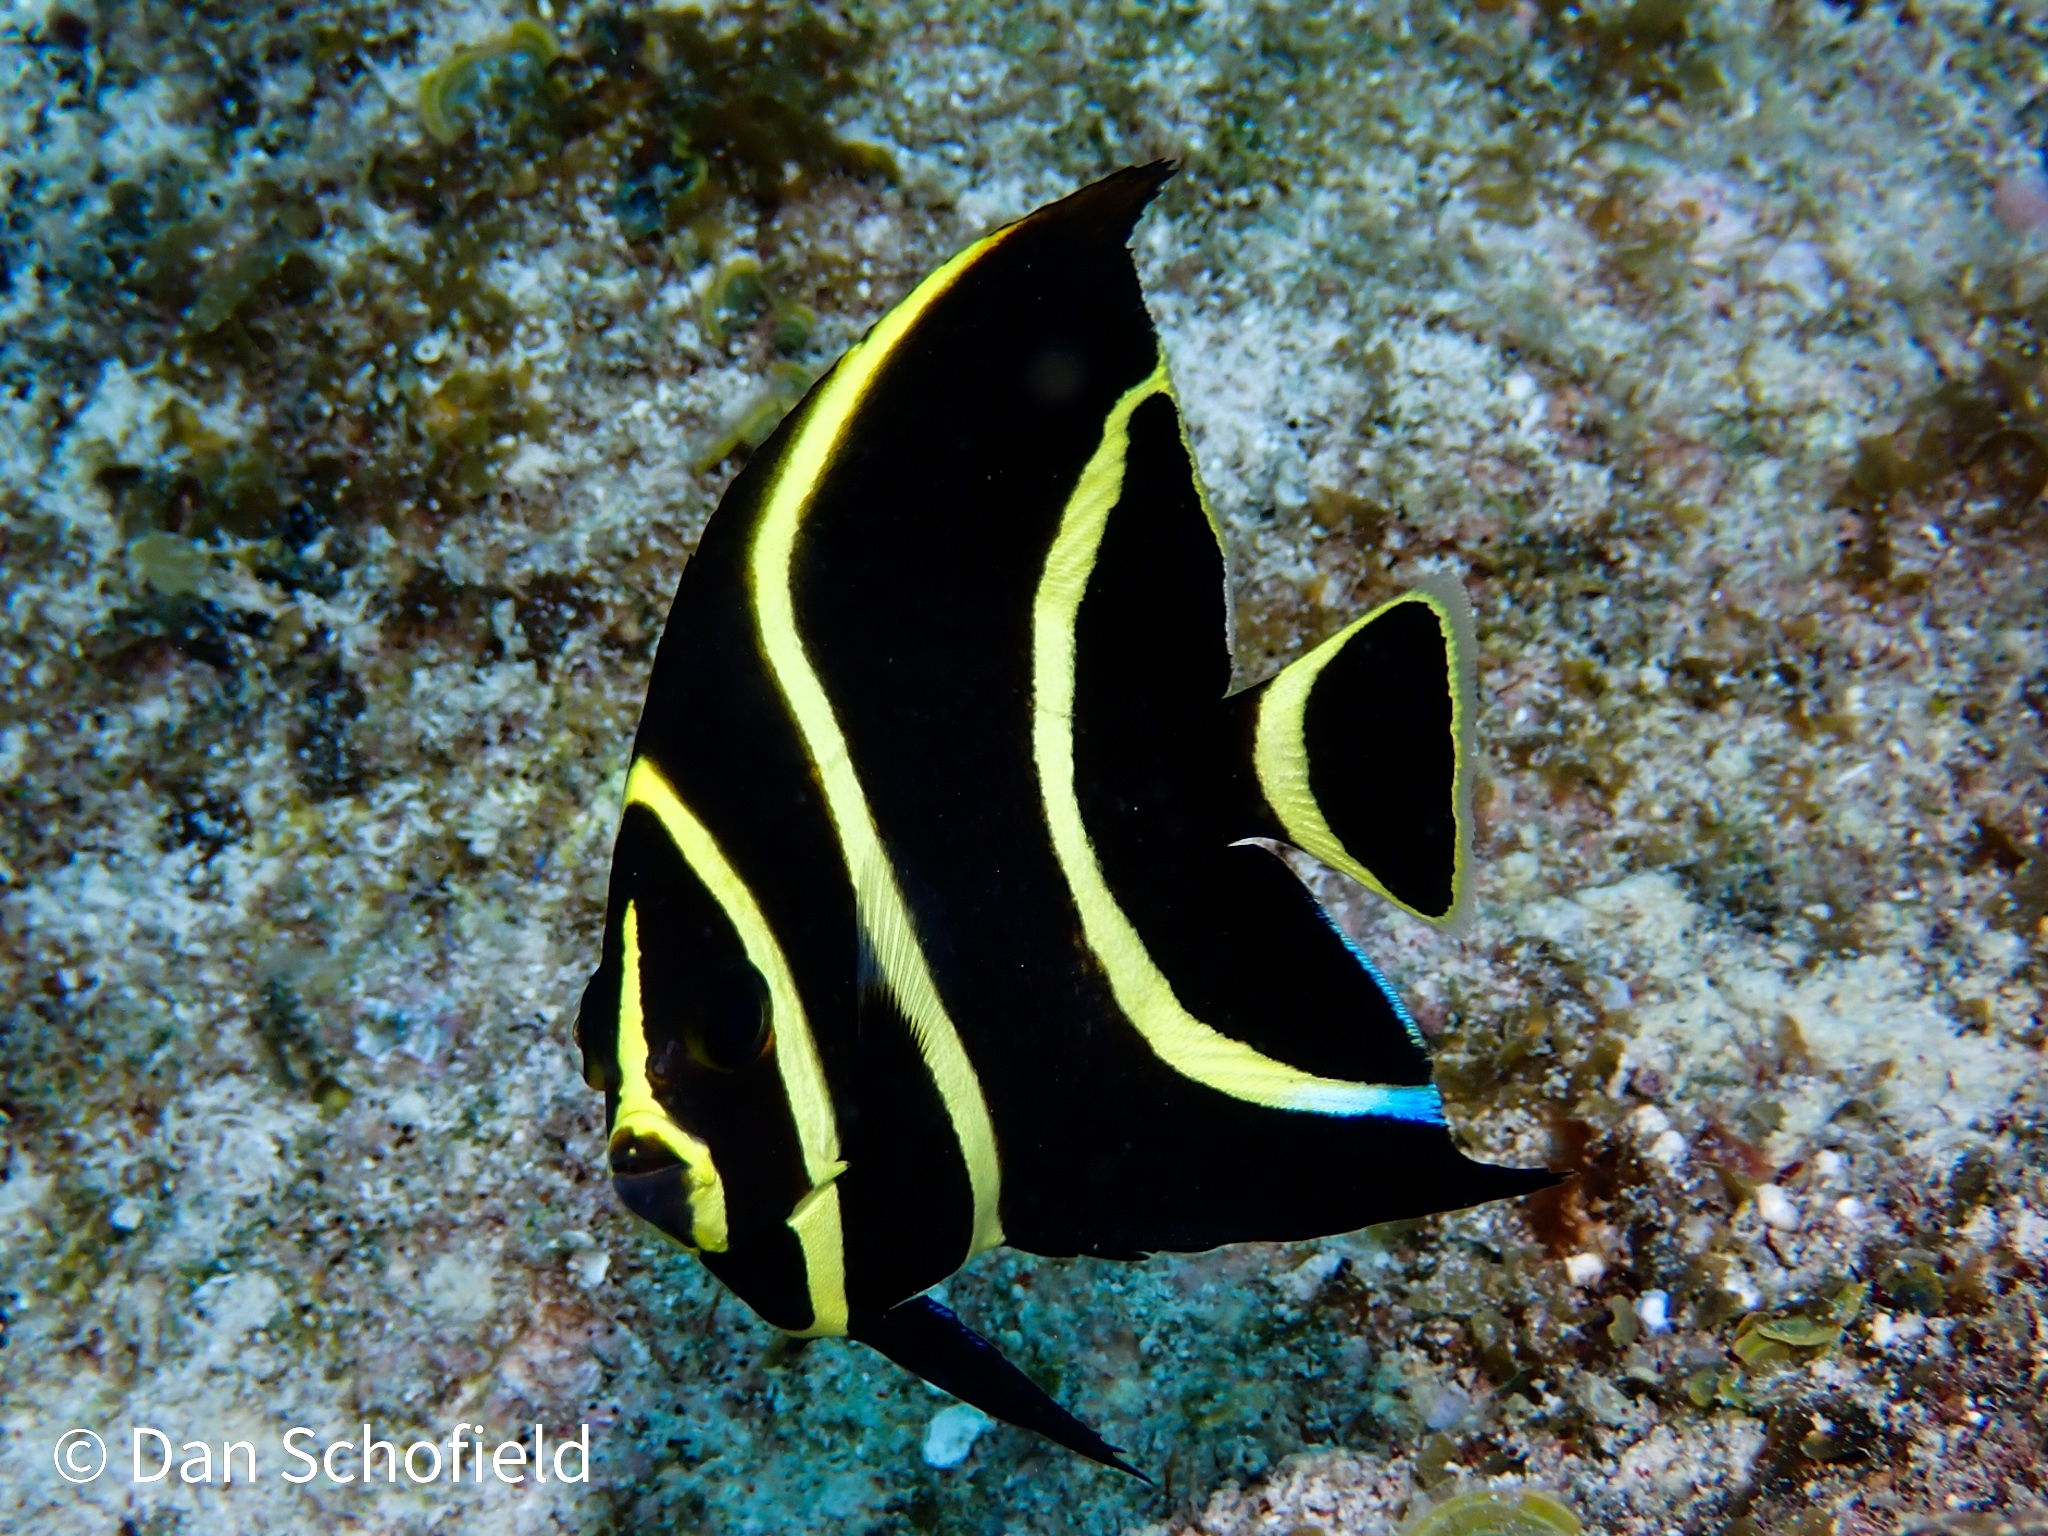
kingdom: Animalia
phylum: Chordata
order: Perciformes
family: Pomacanthidae
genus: Pomacanthus
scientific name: Pomacanthus paru
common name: French angelfish
